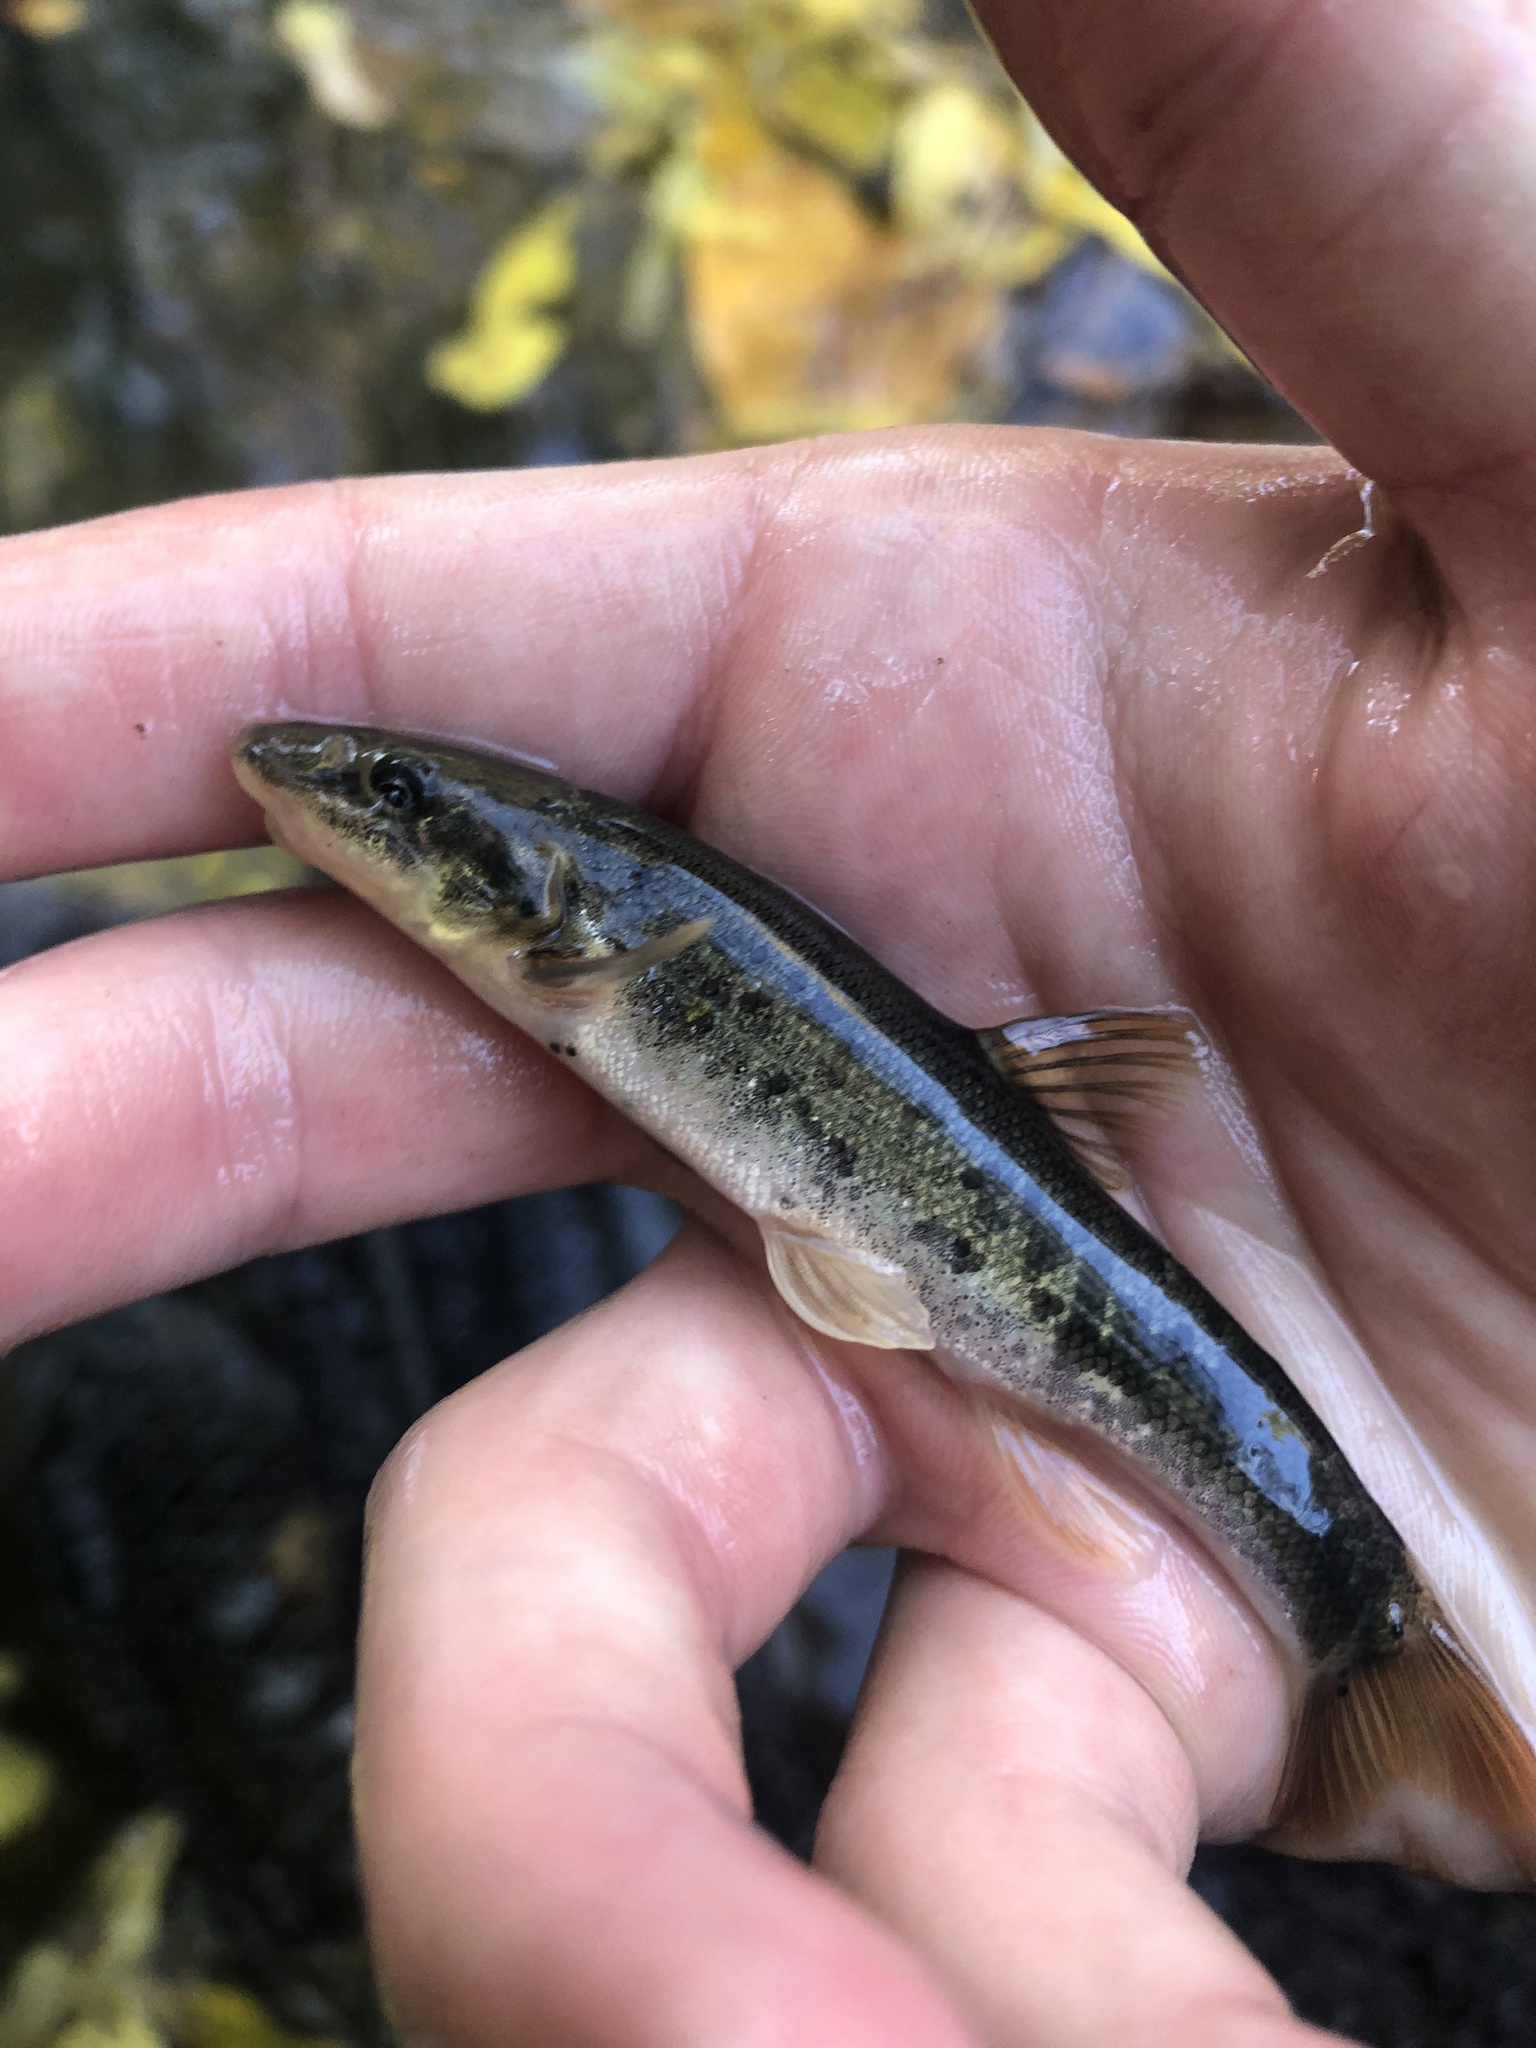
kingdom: Animalia
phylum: Chordata
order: Cypriniformes
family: Cyprinidae
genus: Rhinichthys
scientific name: Rhinichthys cataractae
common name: Longnose dace
